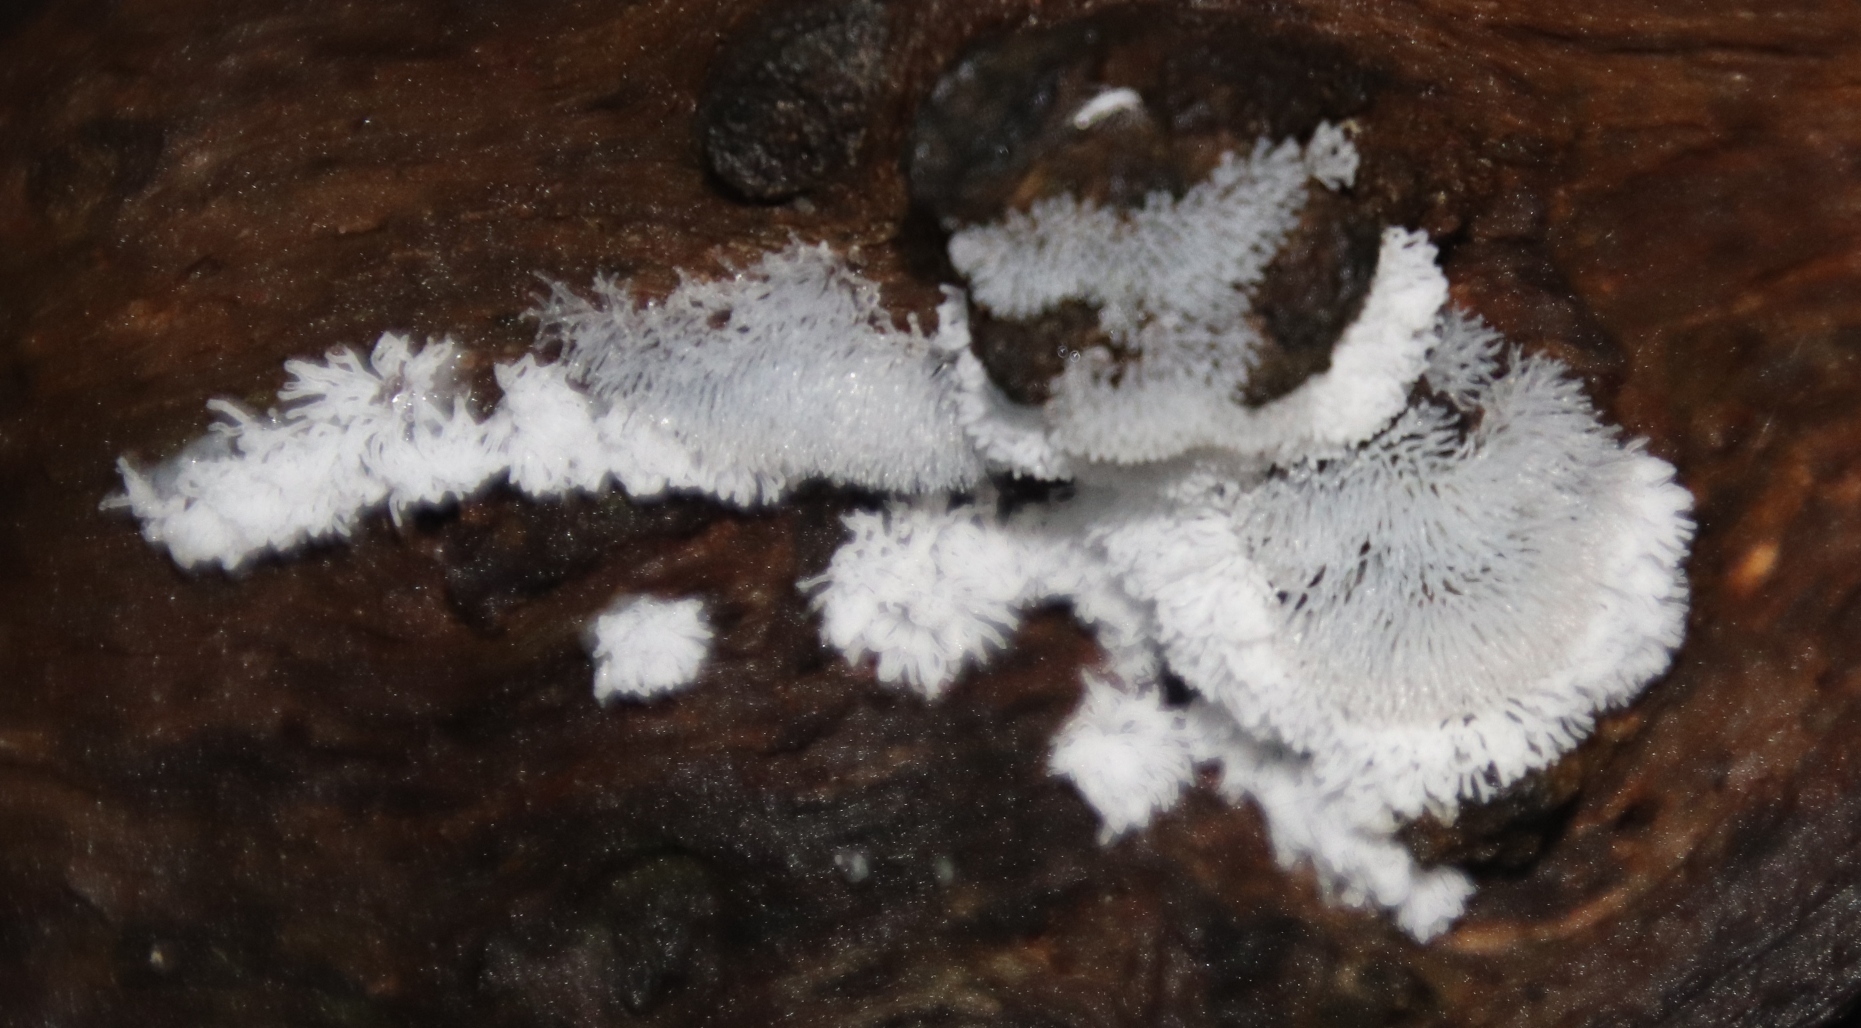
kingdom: Protozoa
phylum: Mycetozoa
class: Protosteliomycetes
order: Ceratiomyxales
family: Ceratiomyxaceae
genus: Ceratiomyxa
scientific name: Ceratiomyxa fruticulosa
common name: Honeycomb coral slime mold
